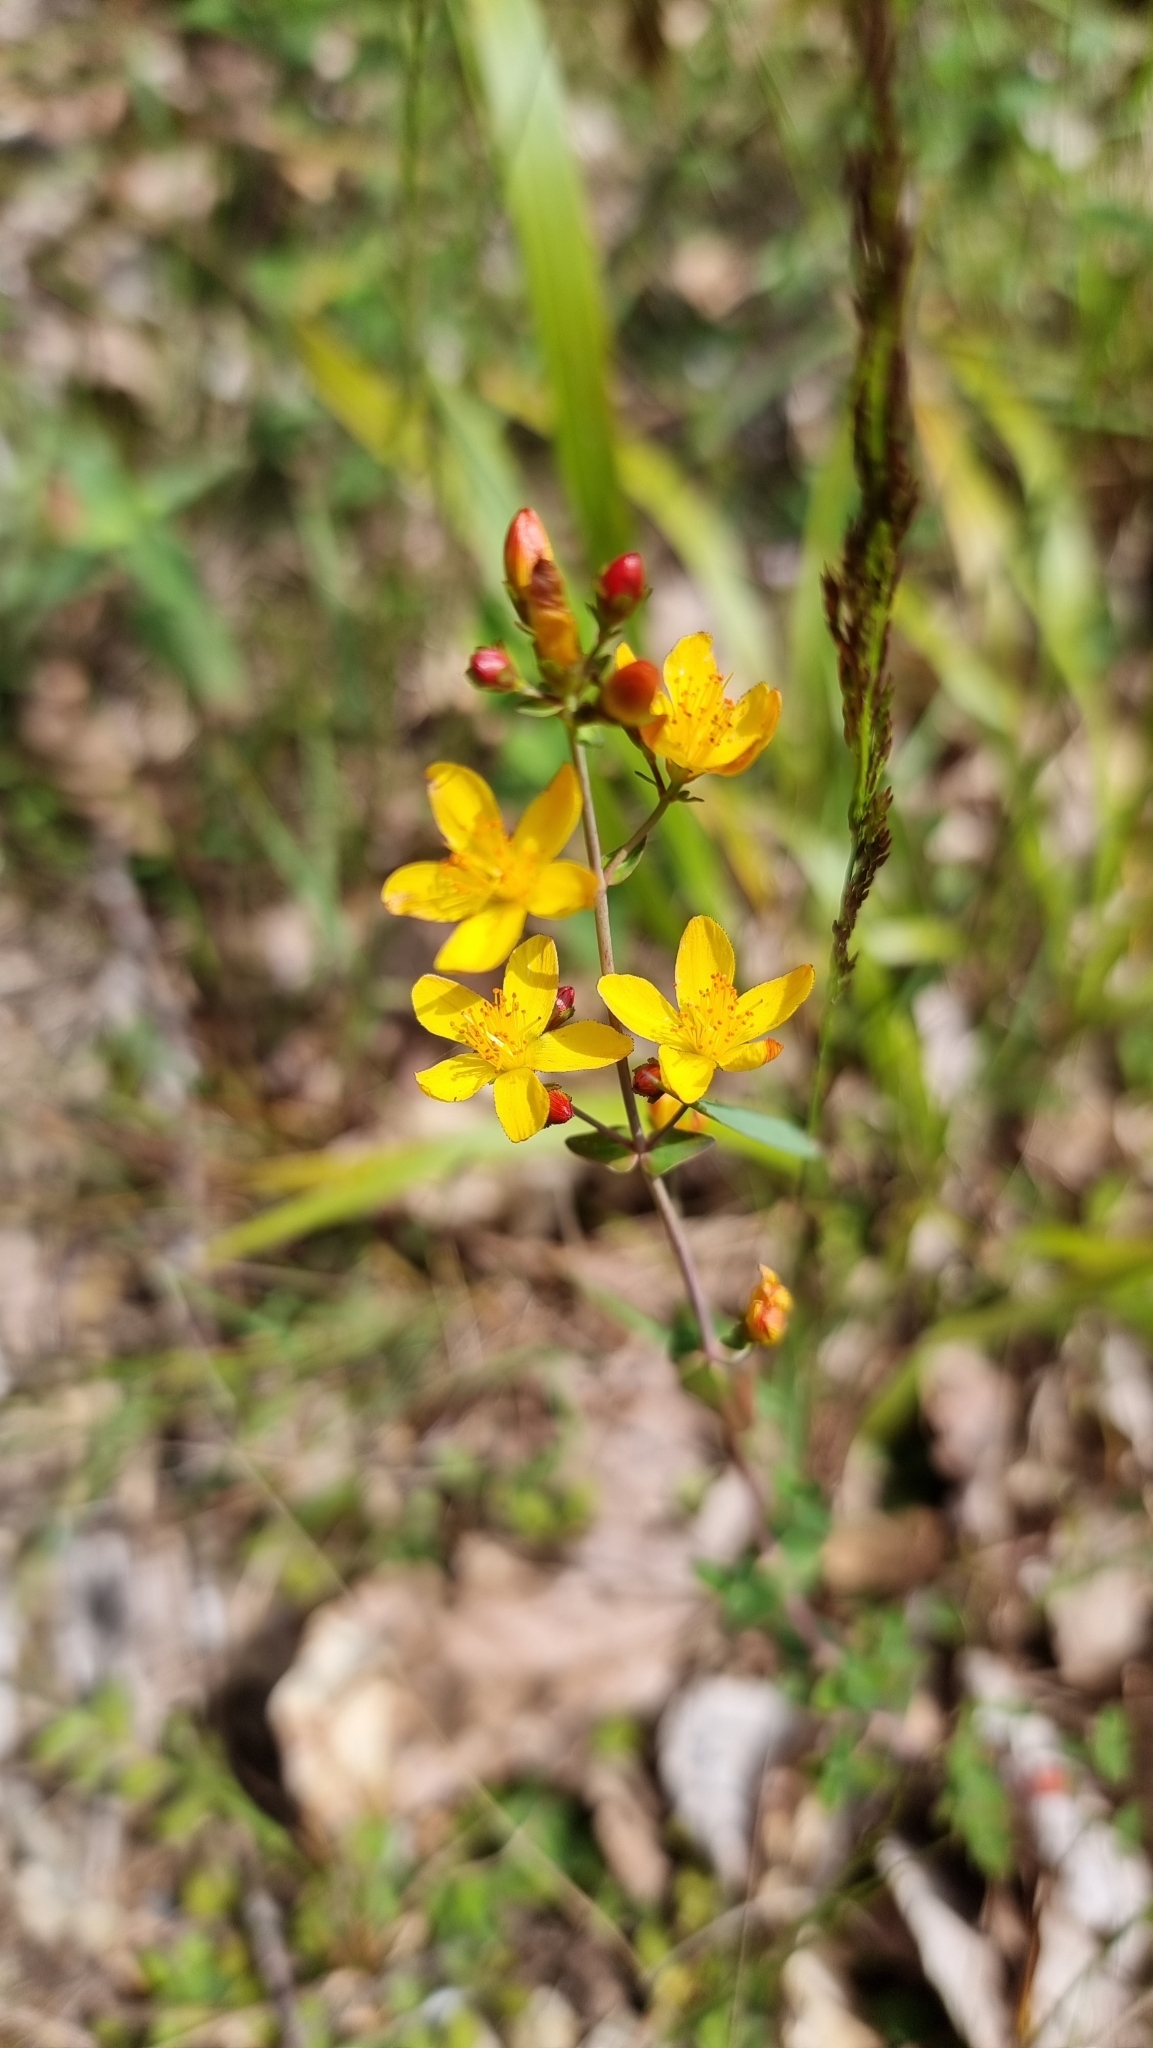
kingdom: Plantae
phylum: Tracheophyta
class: Magnoliopsida
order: Malpighiales
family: Hypericaceae
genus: Hypericum
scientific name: Hypericum pulchrum
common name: Slender st. john's-wort
